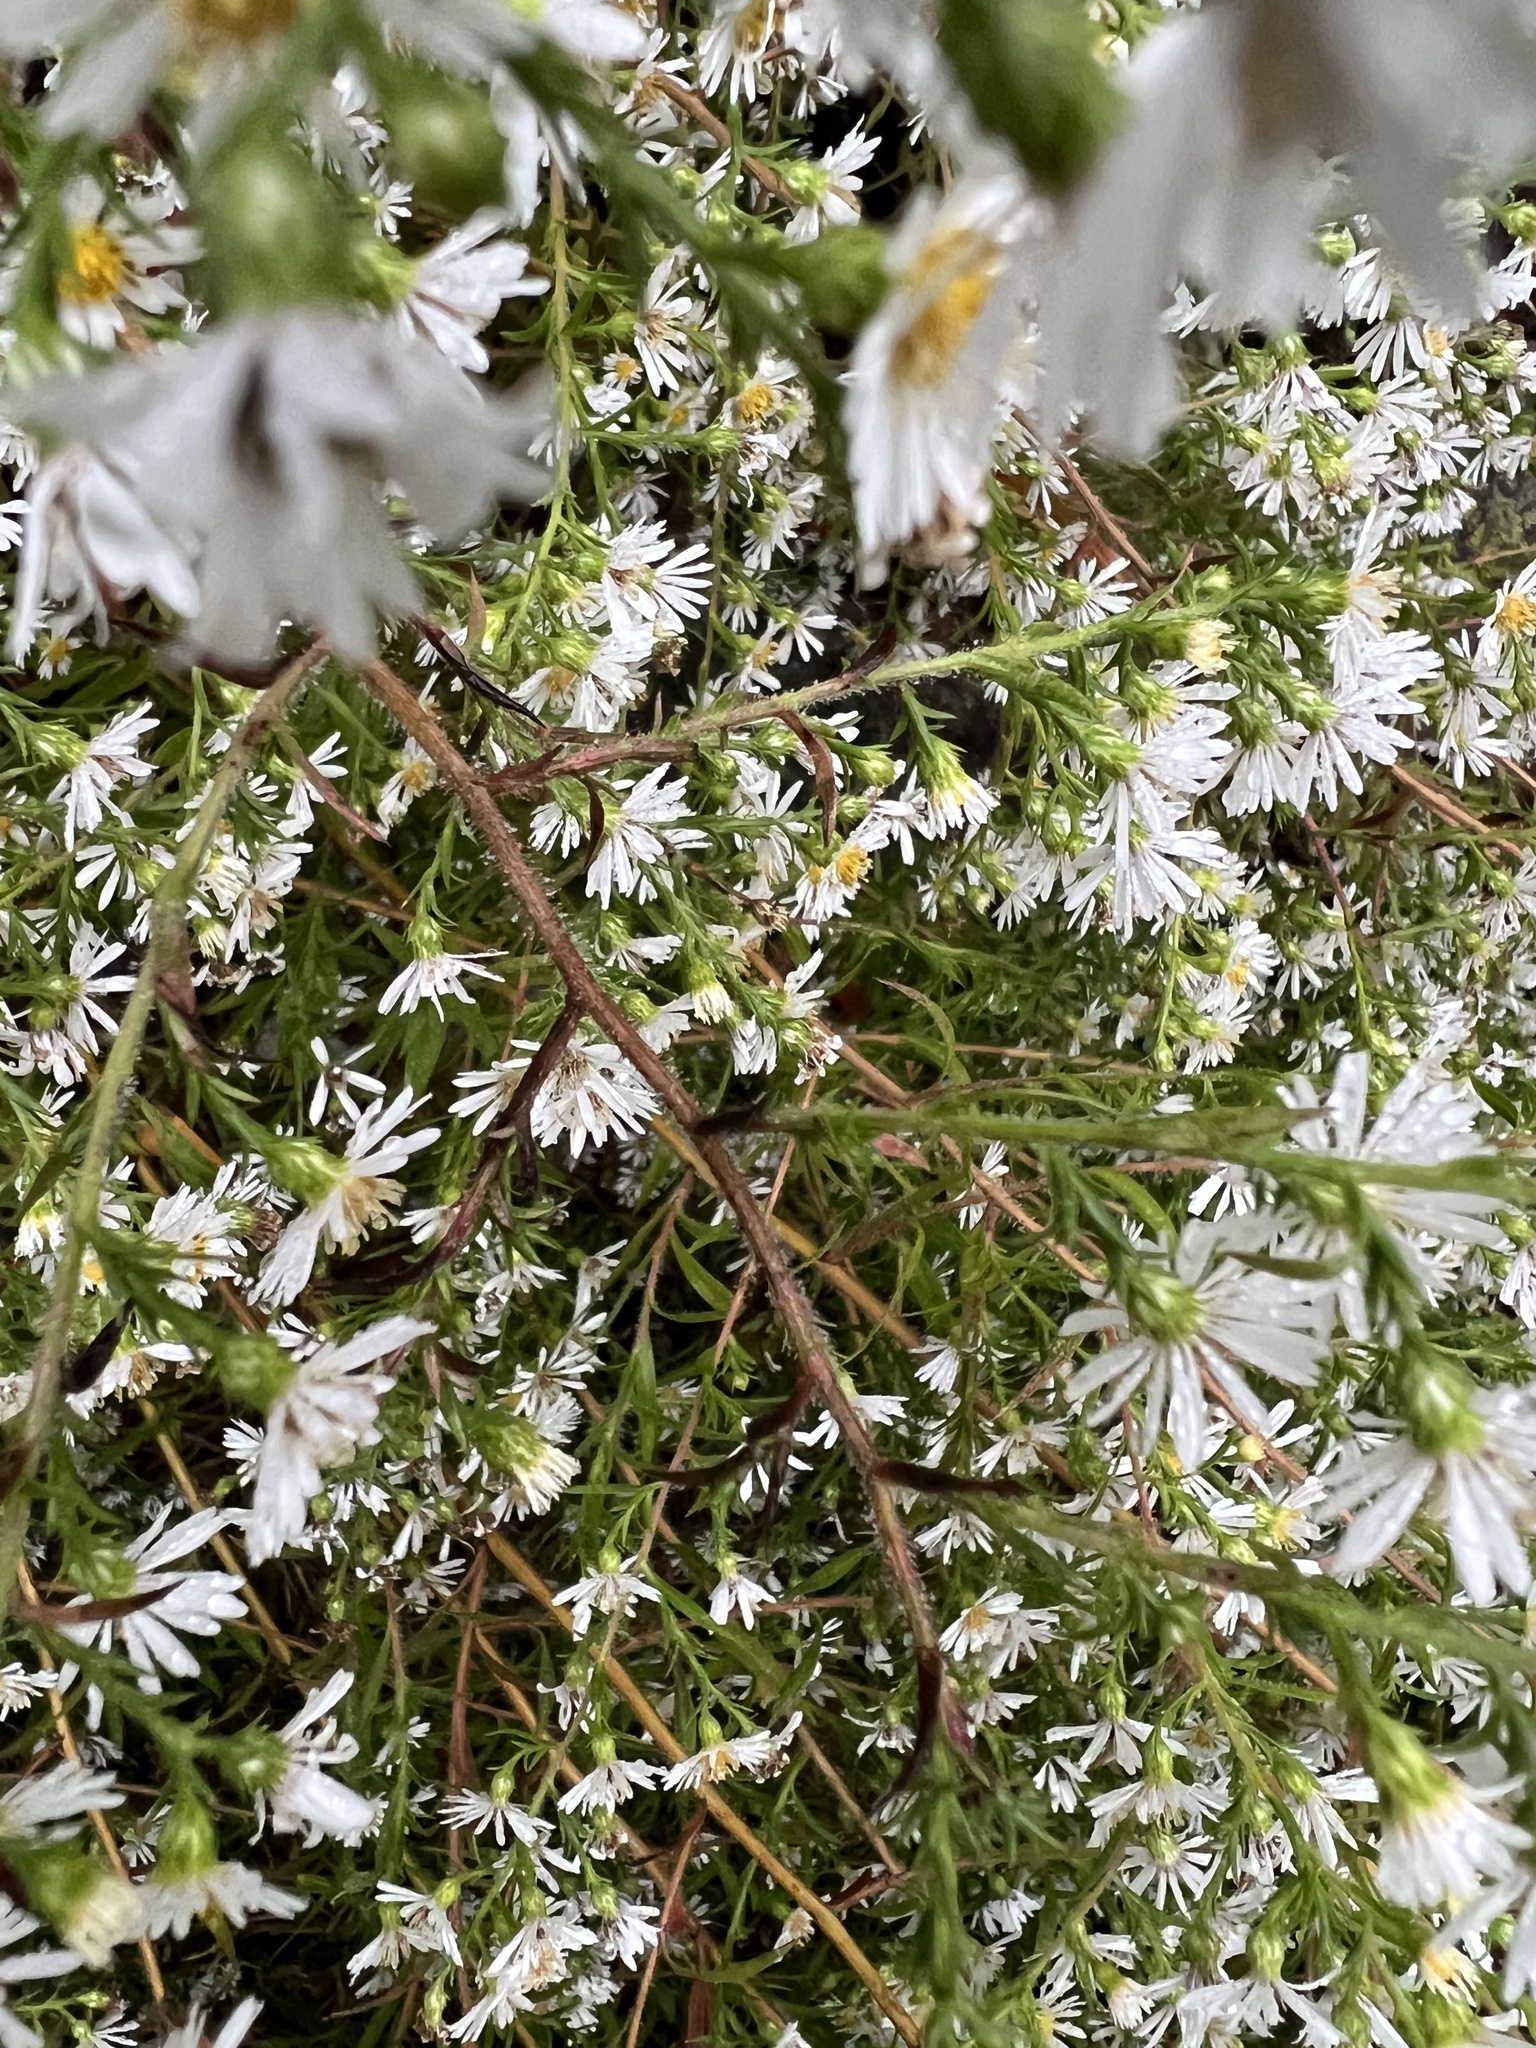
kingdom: Plantae
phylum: Tracheophyta
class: Magnoliopsida
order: Asterales
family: Asteraceae
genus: Symphyotrichum
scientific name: Symphyotrichum pilosum
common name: Awl aster
